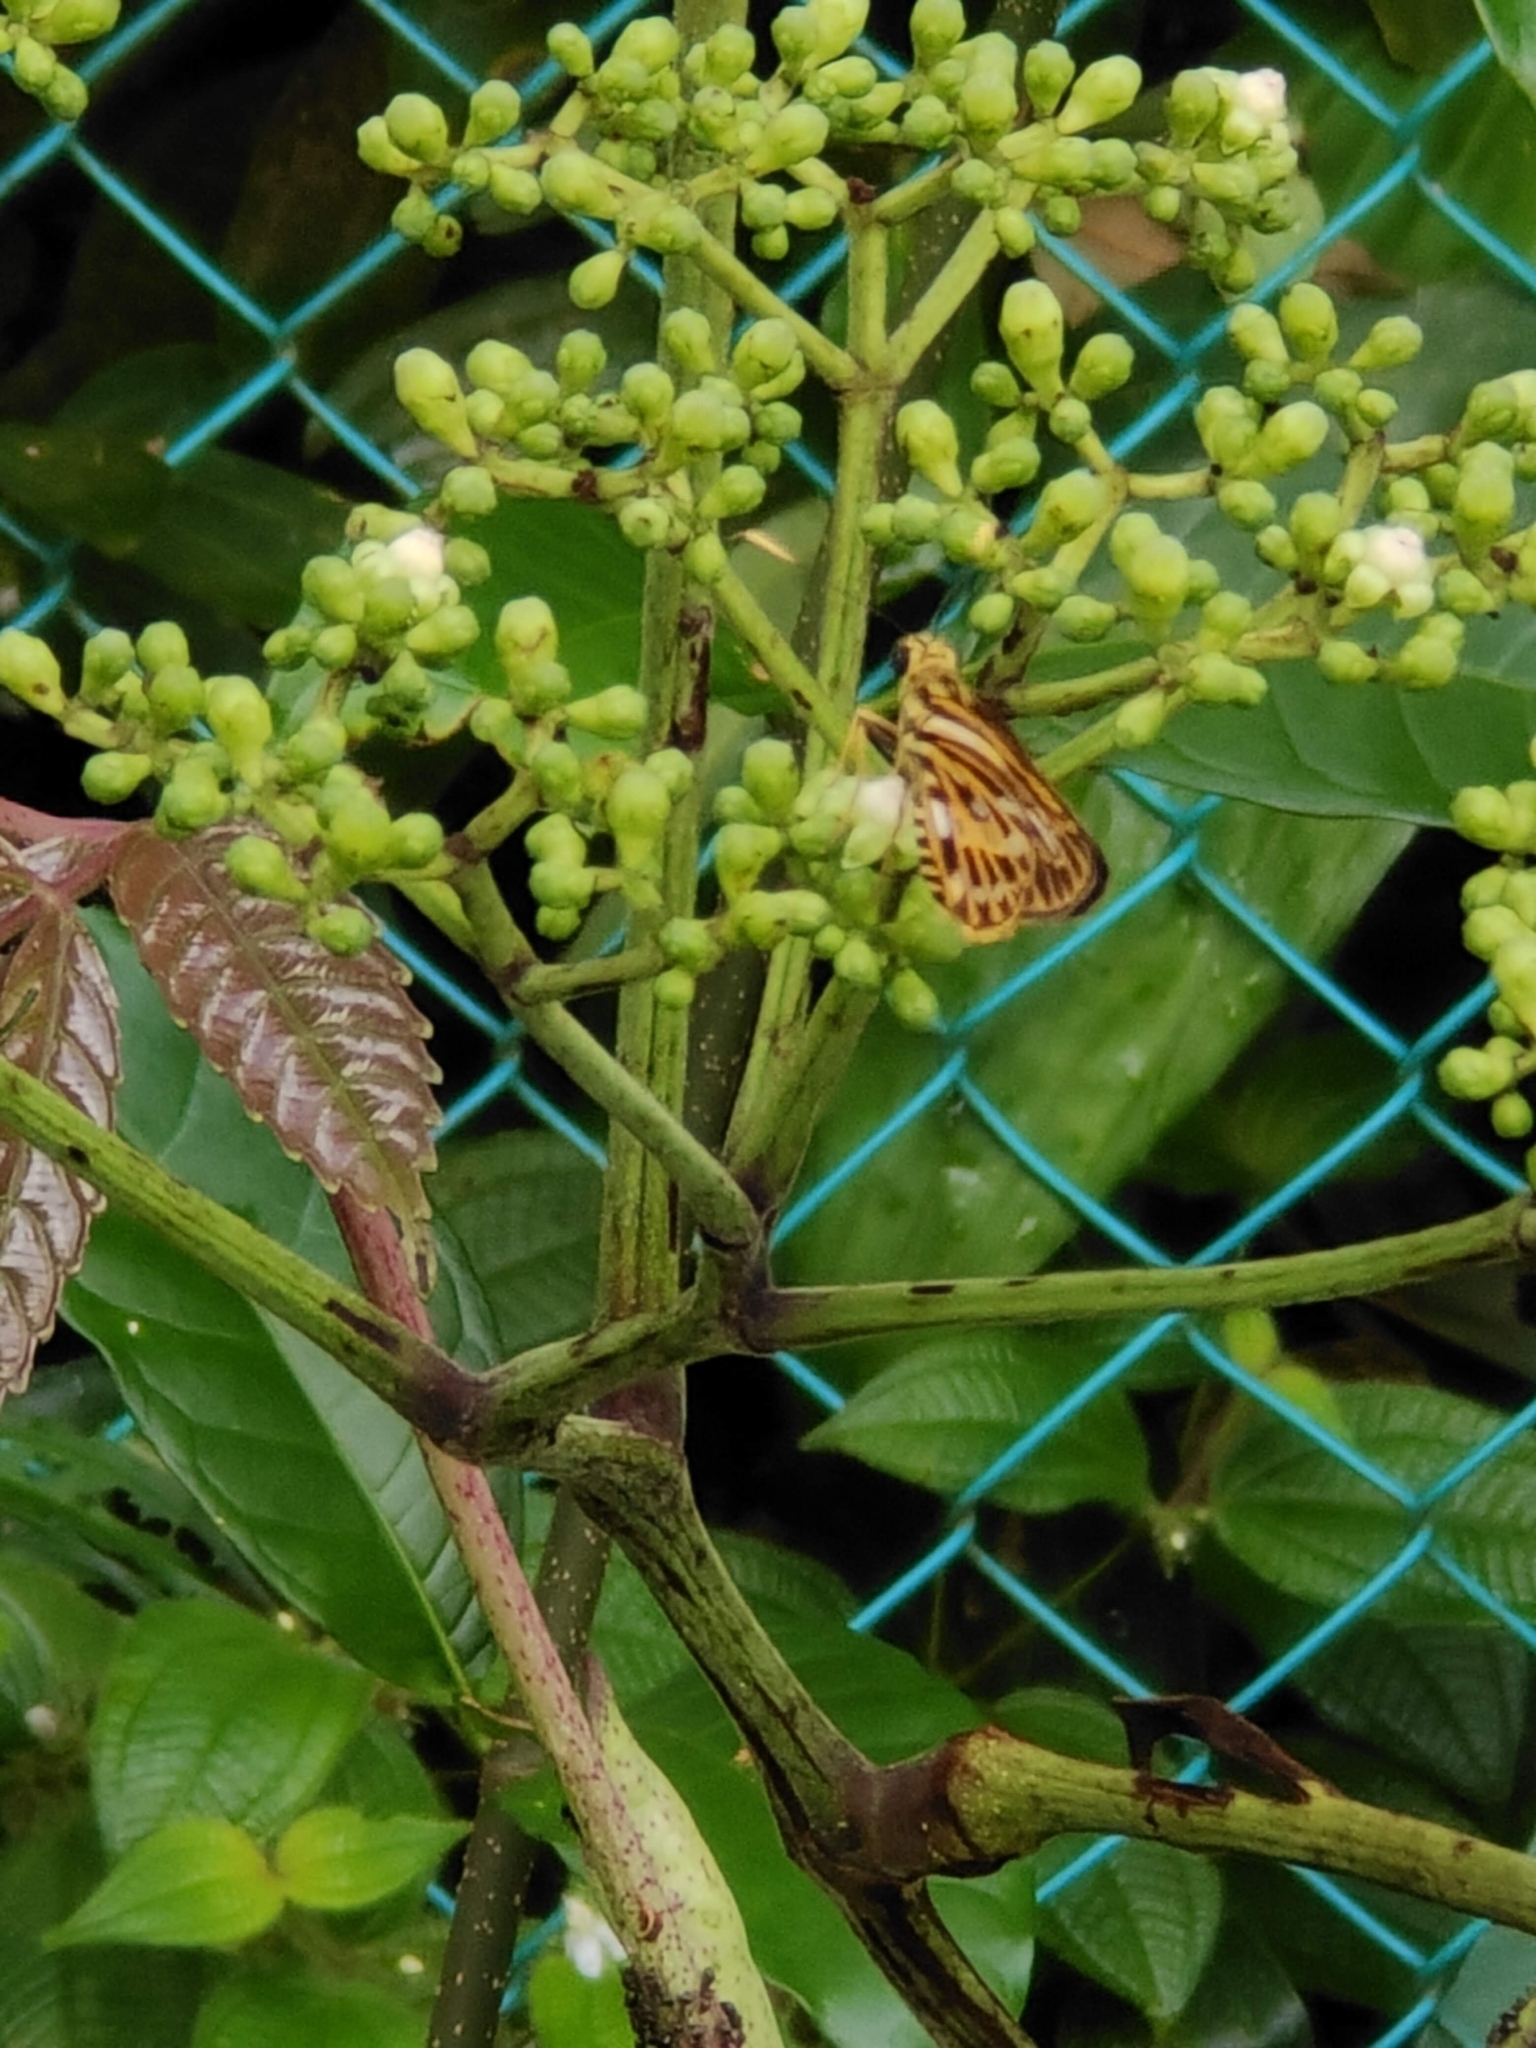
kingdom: Animalia
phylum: Arthropoda
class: Insecta
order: Lepidoptera
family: Hesperiidae
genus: Pyroneura
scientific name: Pyroneura latoia
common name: Yellow vein lancer
